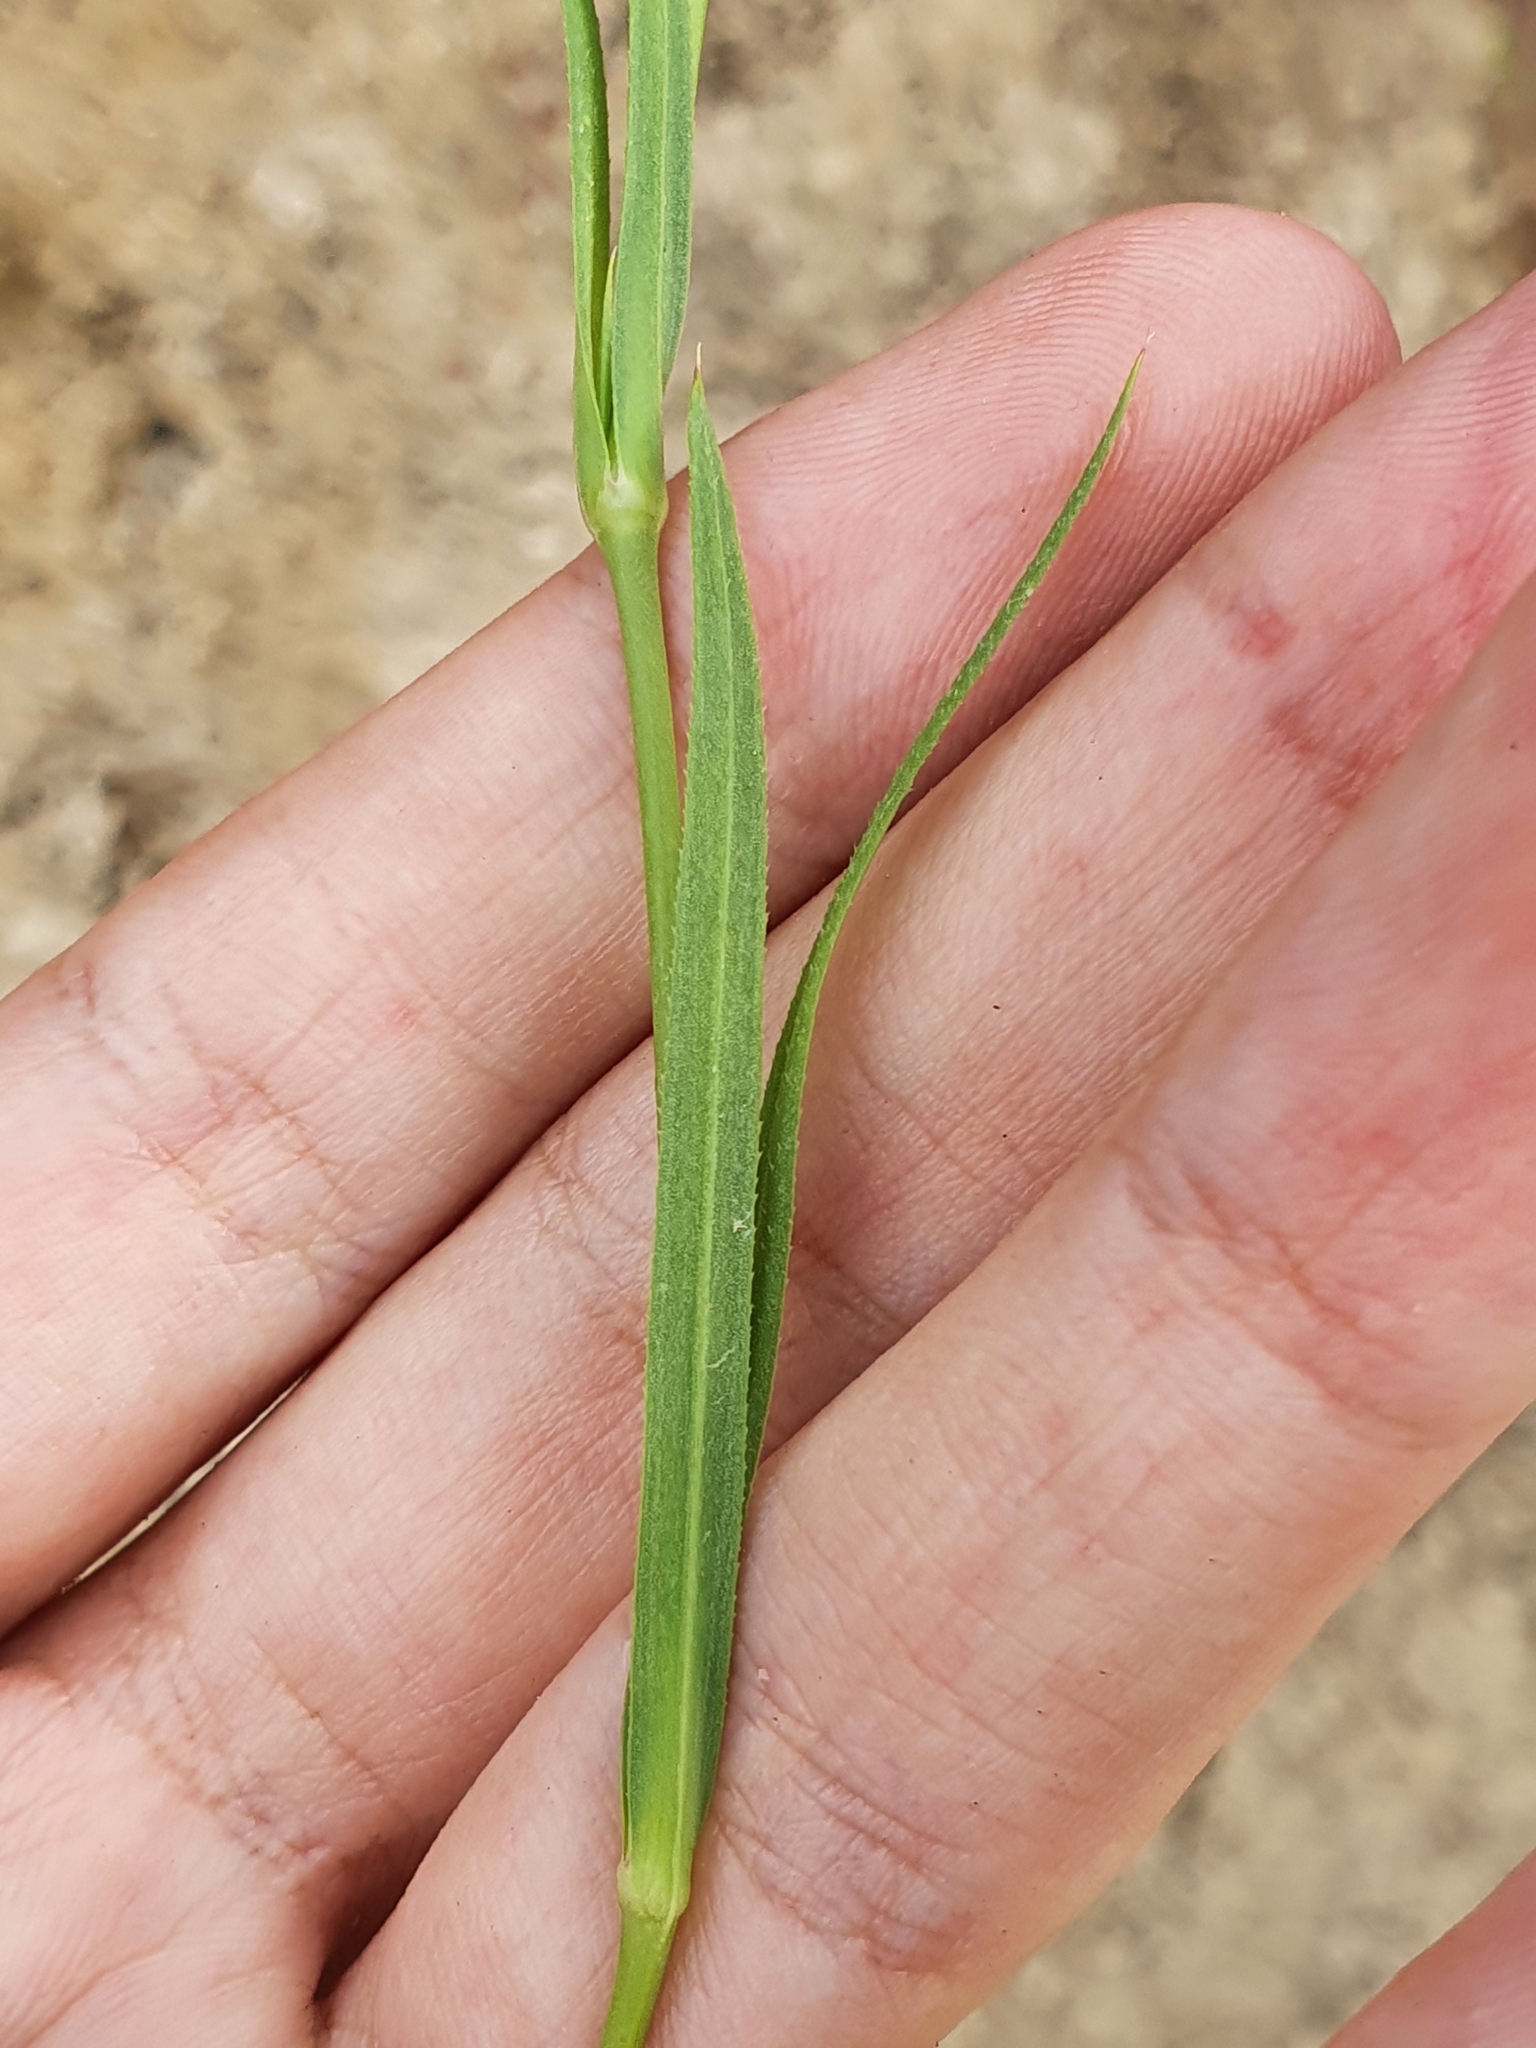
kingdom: Plantae
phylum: Tracheophyta
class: Magnoliopsida
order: Caryophyllales
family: Caryophyllaceae
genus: Eudianthe
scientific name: Eudianthe coeli-rosa
